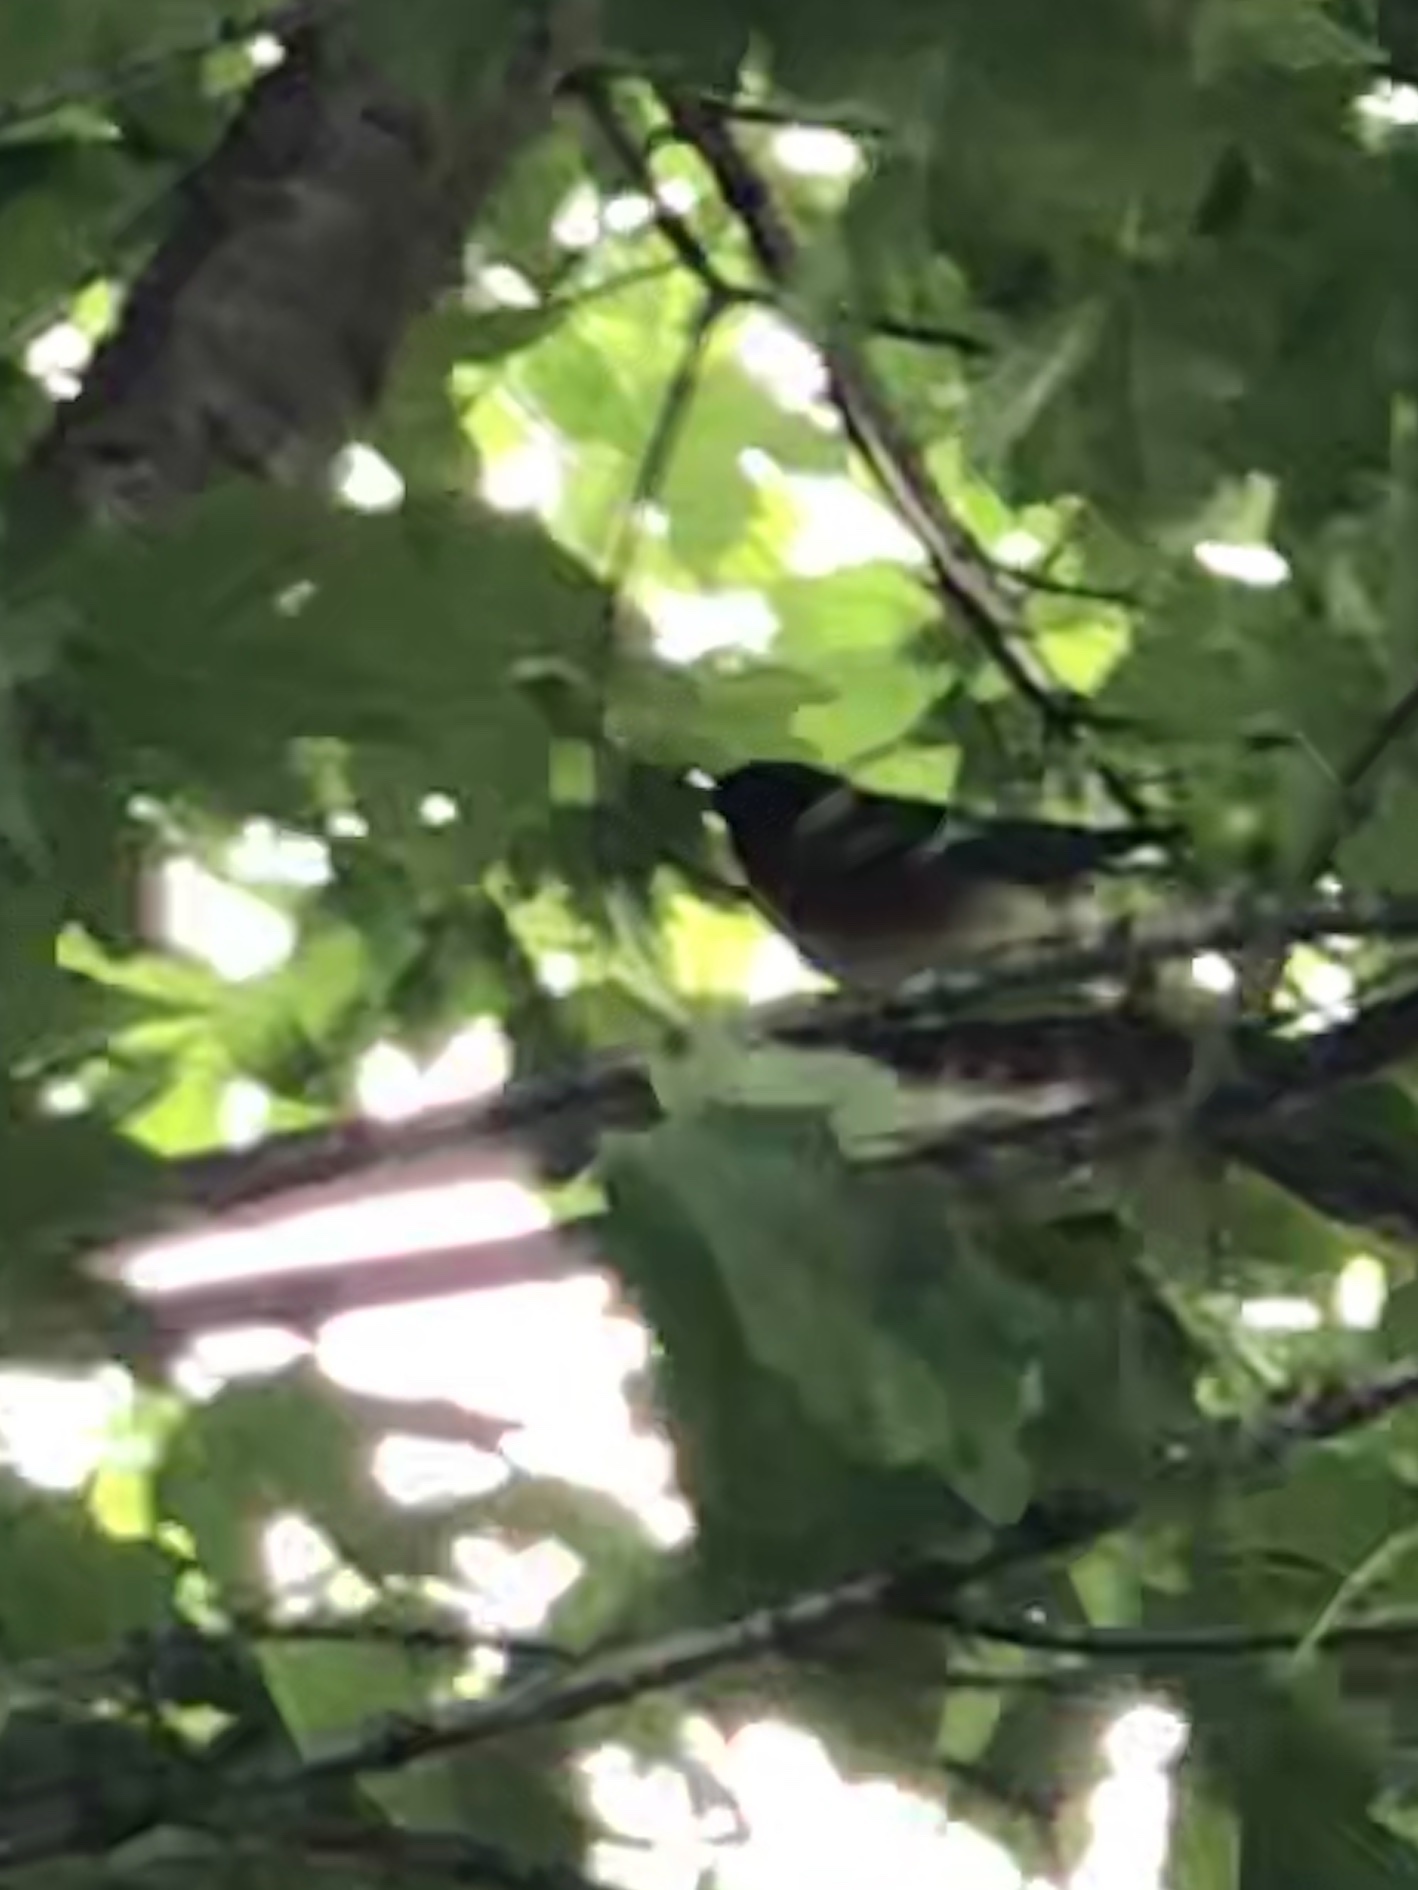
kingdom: Animalia
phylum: Chordata
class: Aves
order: Passeriformes
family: Parulidae
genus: Setophaga
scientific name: Setophaga castanea
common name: Bay-breasted warbler
